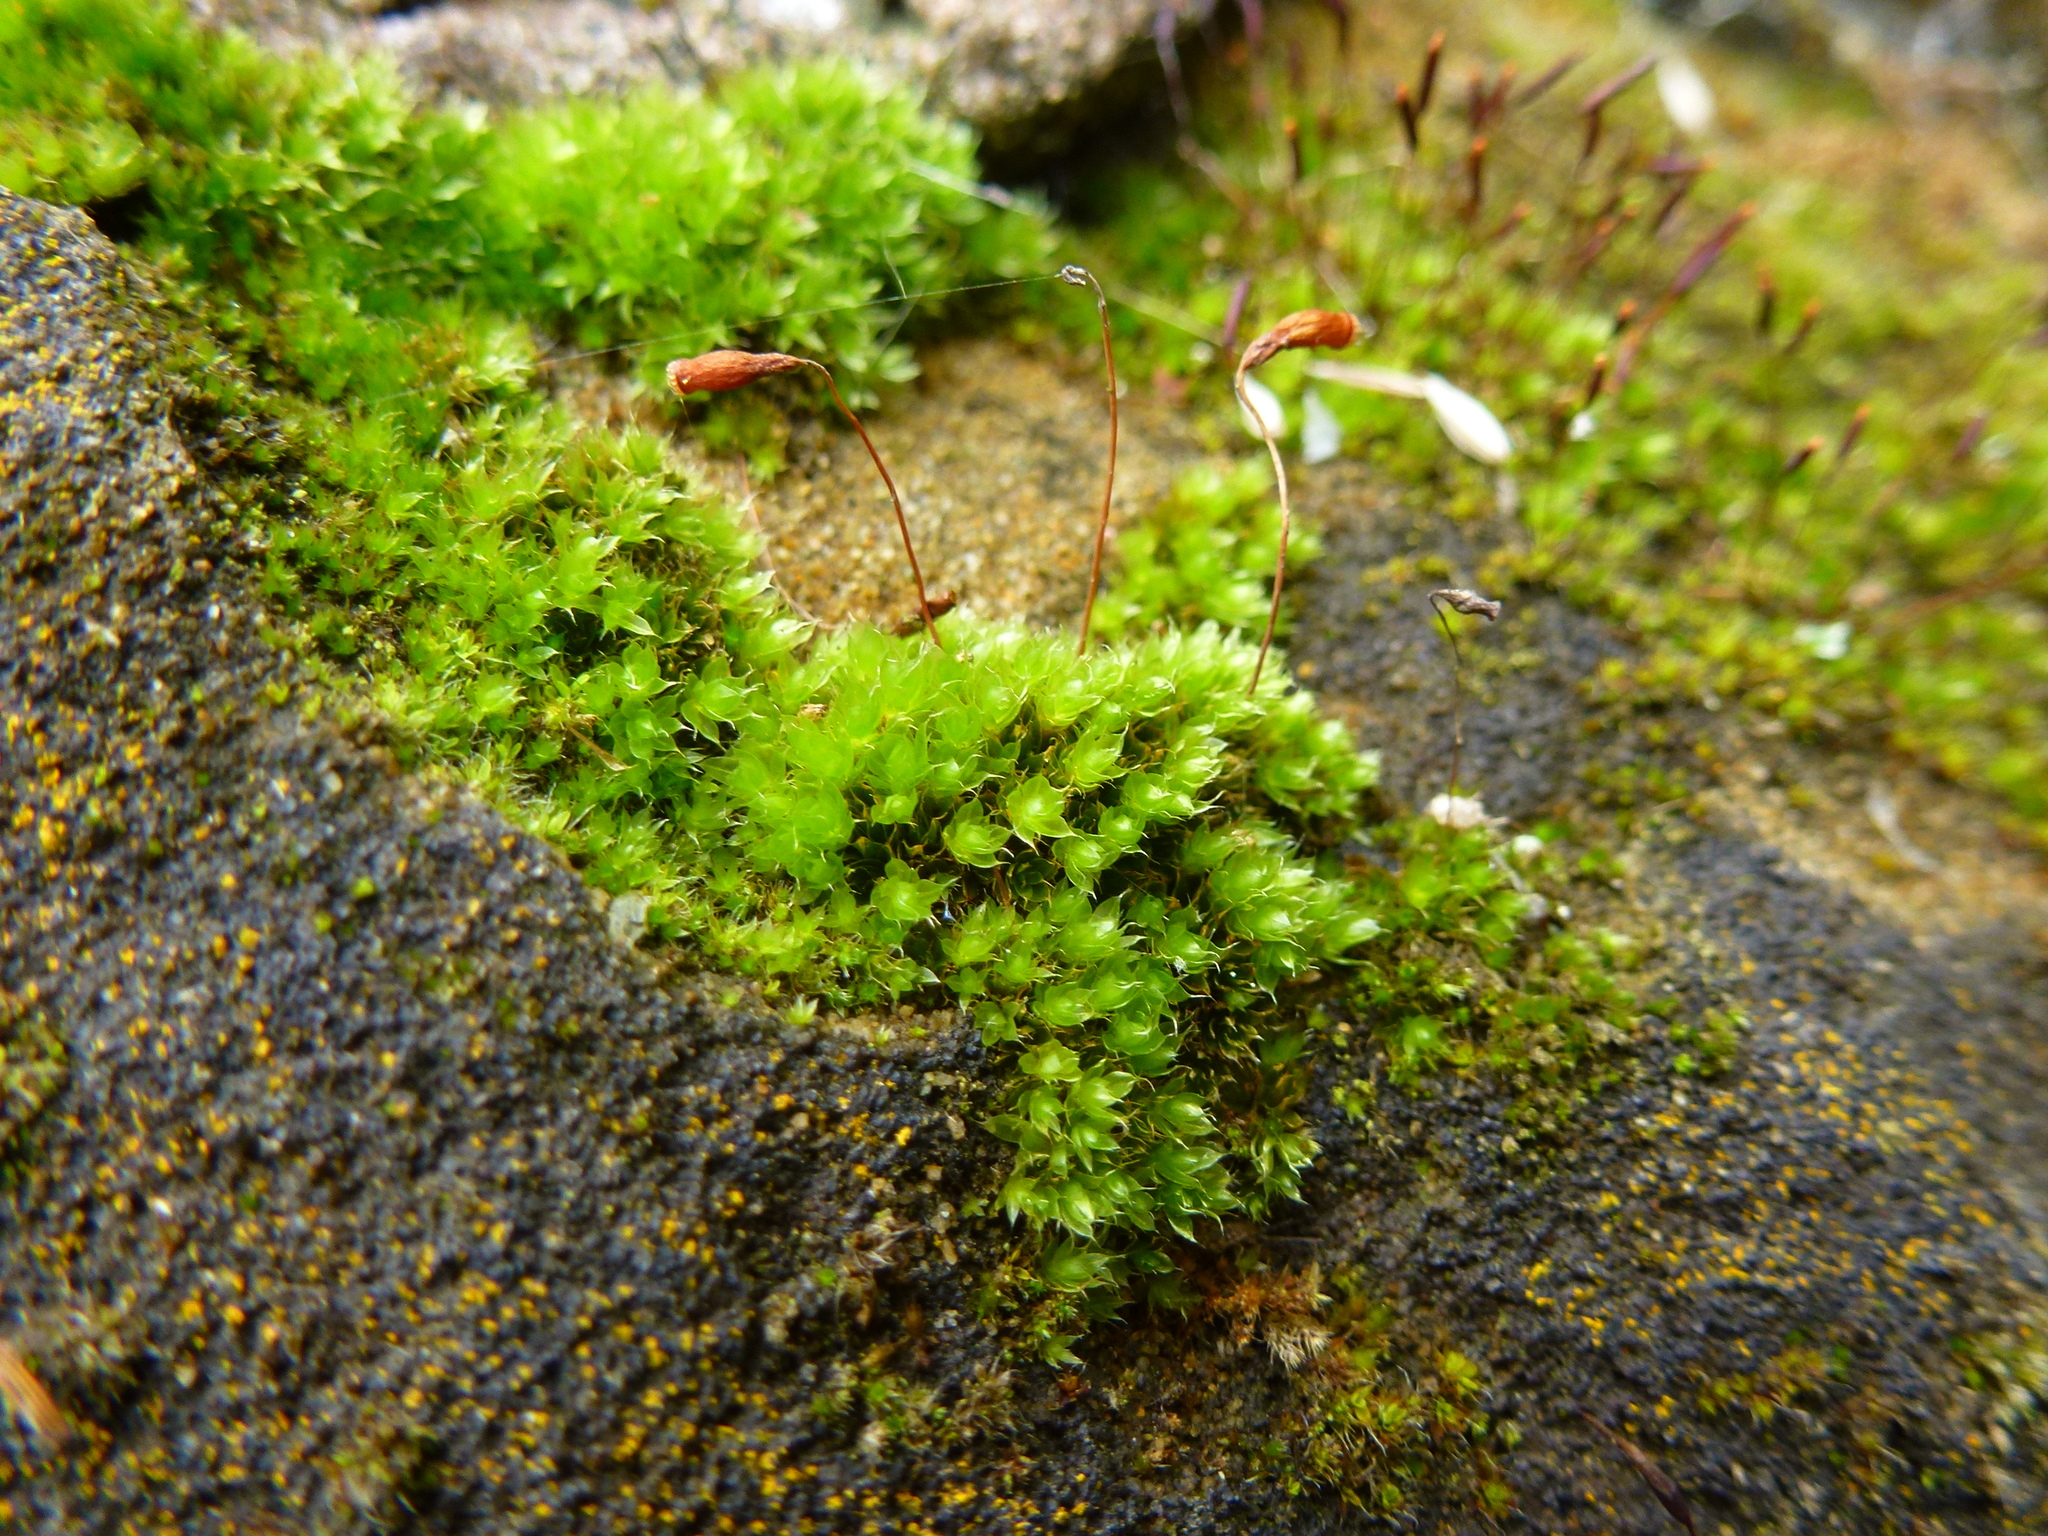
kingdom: Plantae
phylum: Bryophyta
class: Bryopsida
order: Bryales
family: Bryaceae
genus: Rosulabryum
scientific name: Rosulabryum capillare
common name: Capillary thread-moss
